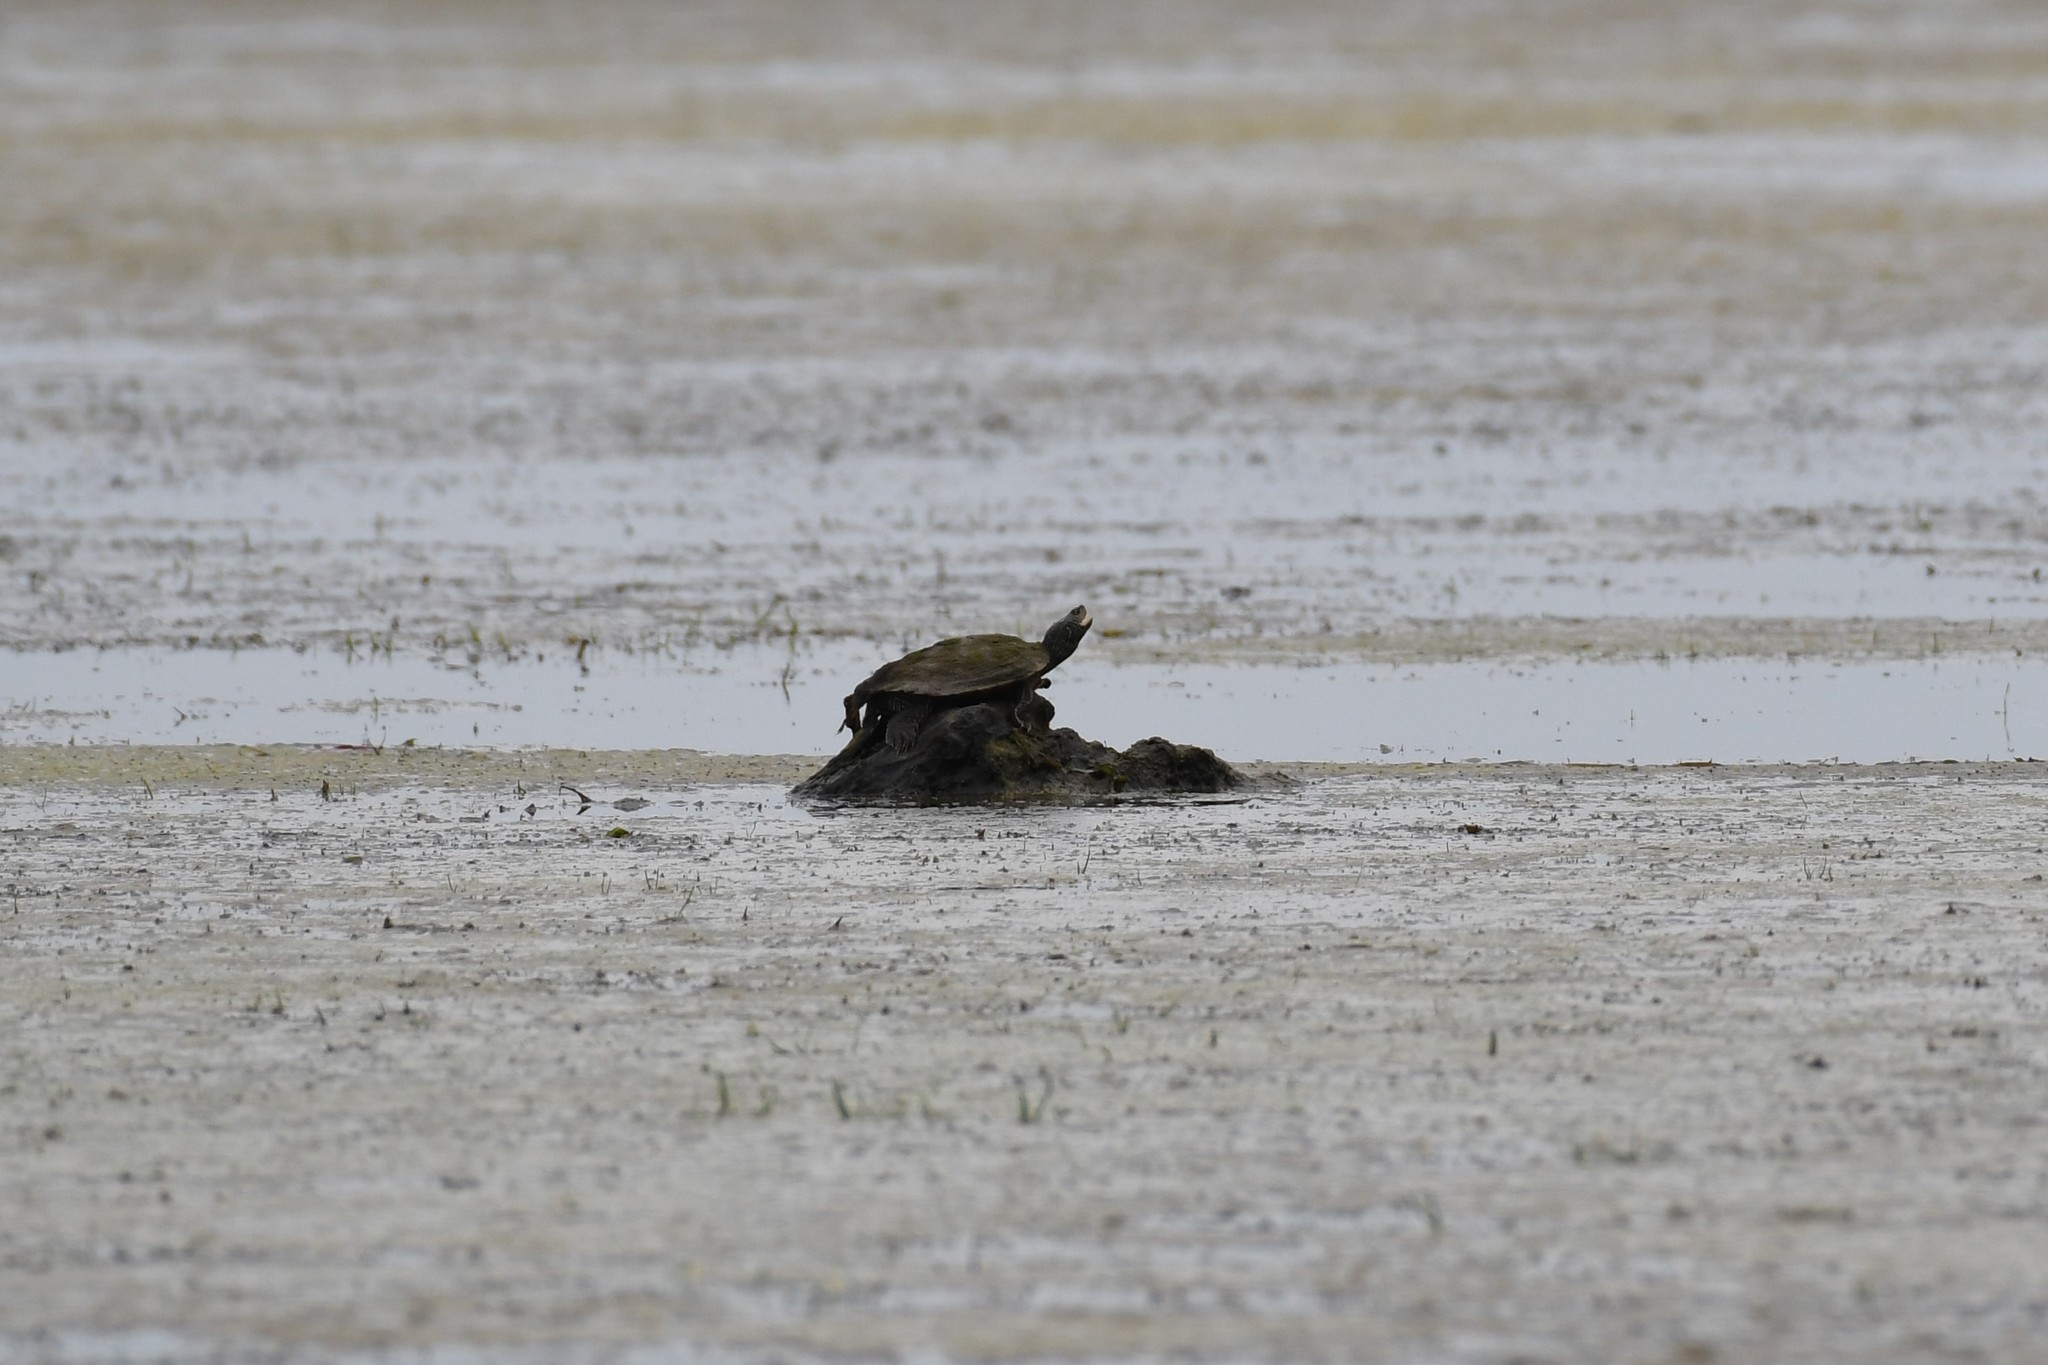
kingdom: Animalia
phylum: Chordata
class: Testudines
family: Emydidae
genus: Graptemys
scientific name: Graptemys geographica
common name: Common map turtle
